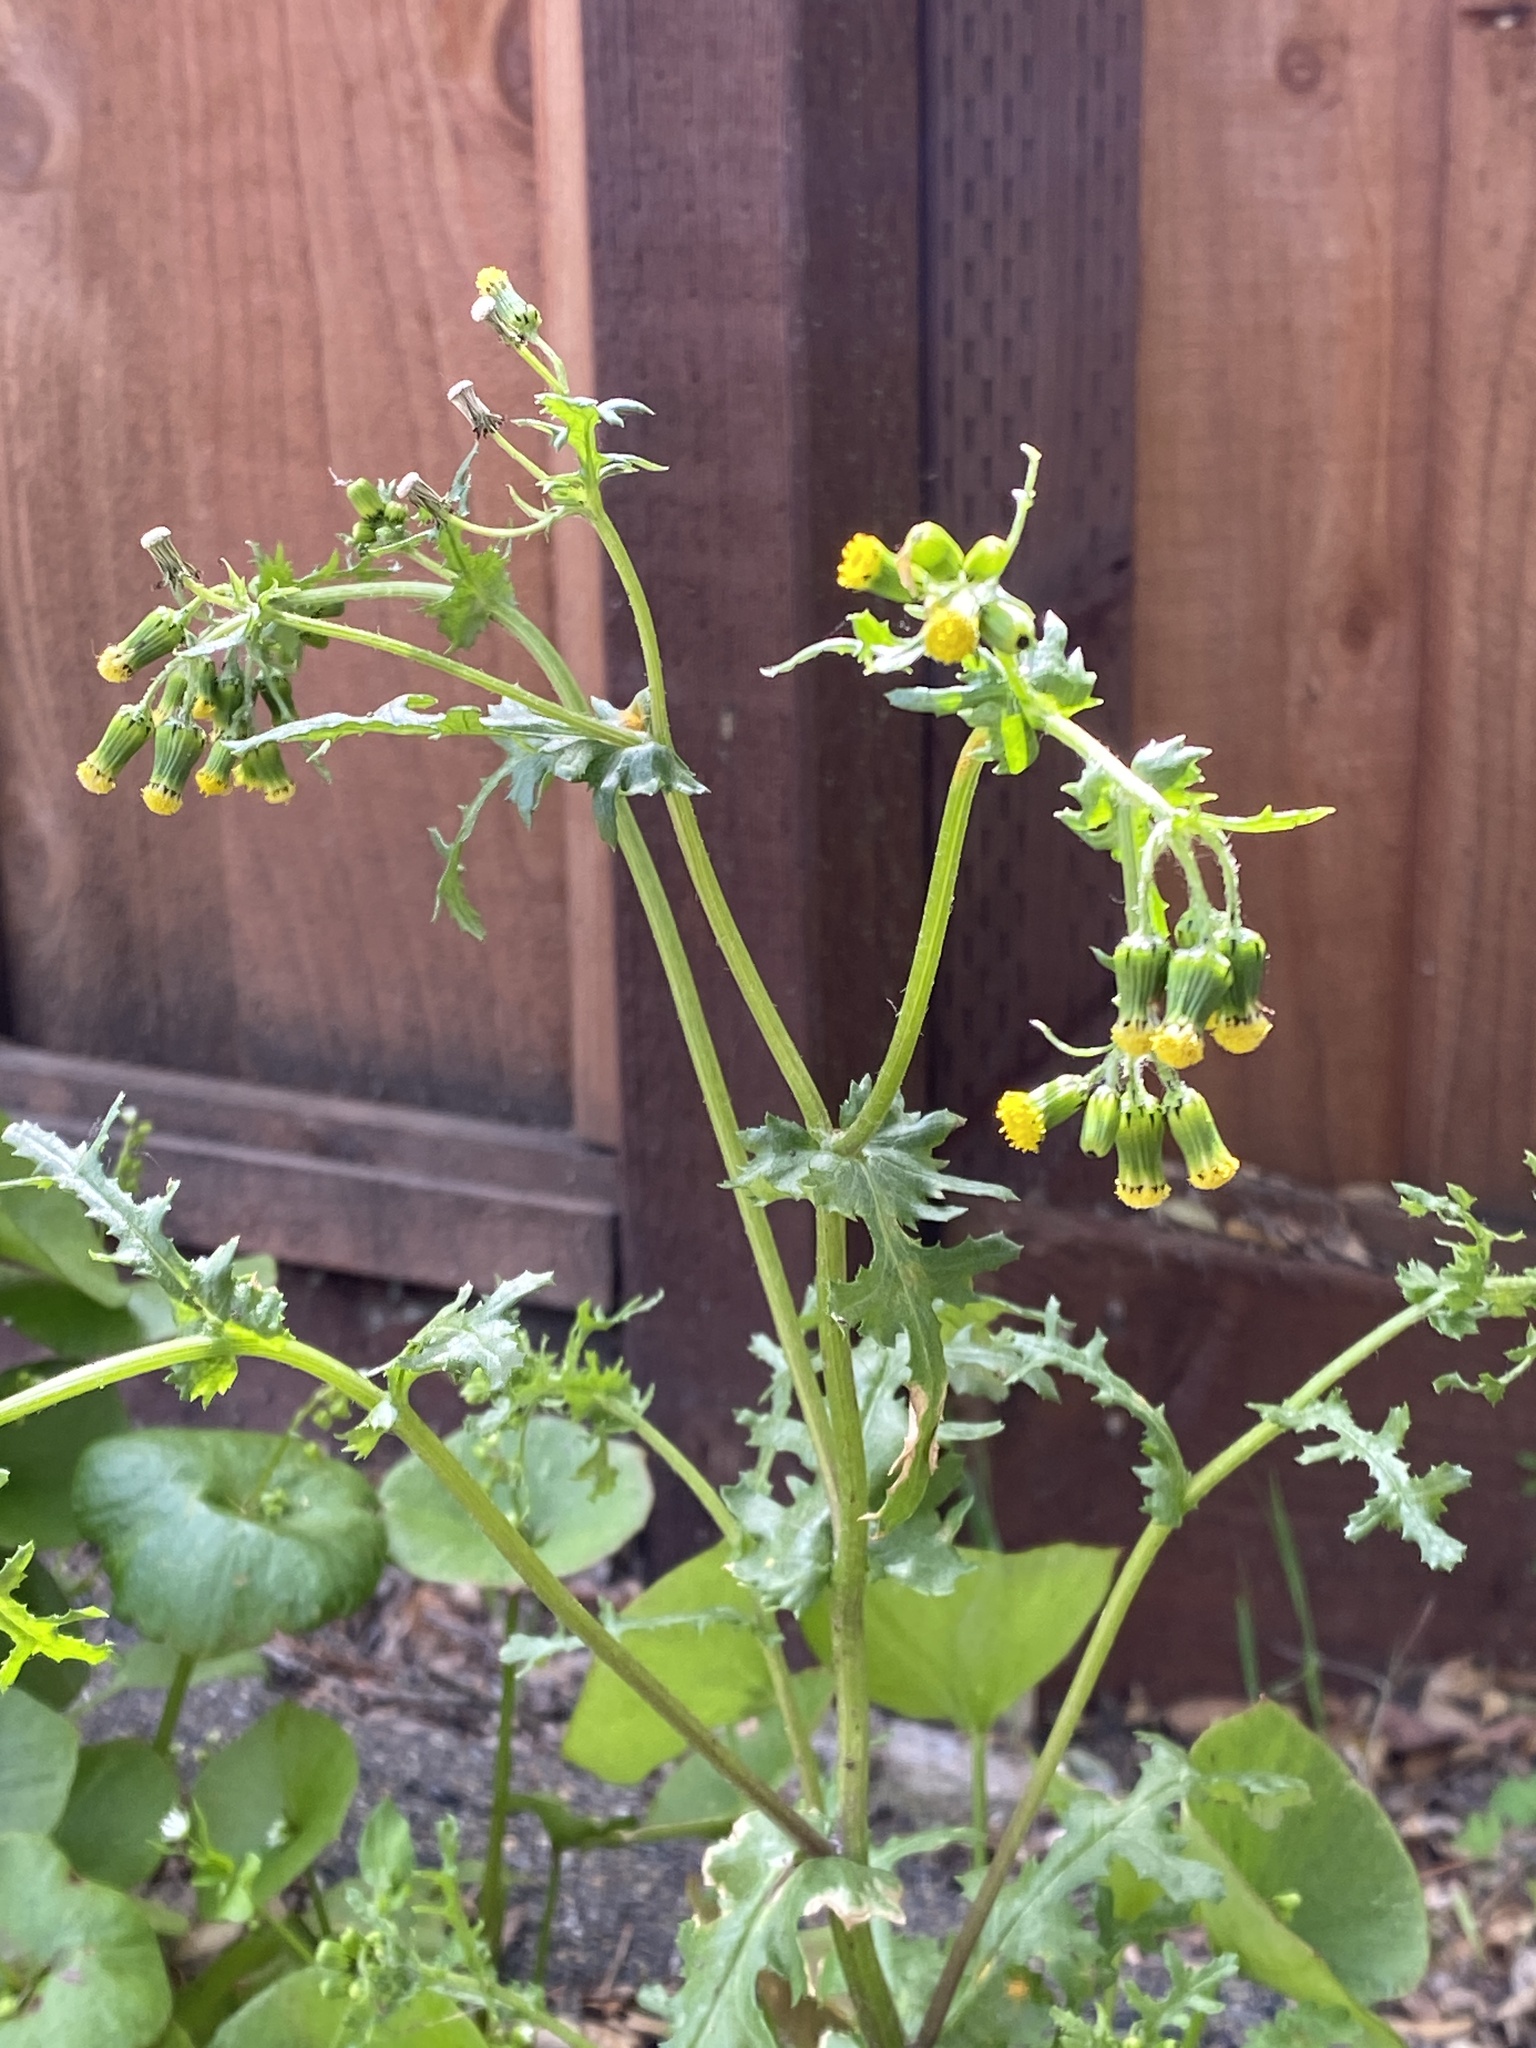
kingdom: Plantae
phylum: Tracheophyta
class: Magnoliopsida
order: Asterales
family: Asteraceae
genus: Senecio
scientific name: Senecio vulgaris
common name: Old-man-in-the-spring
